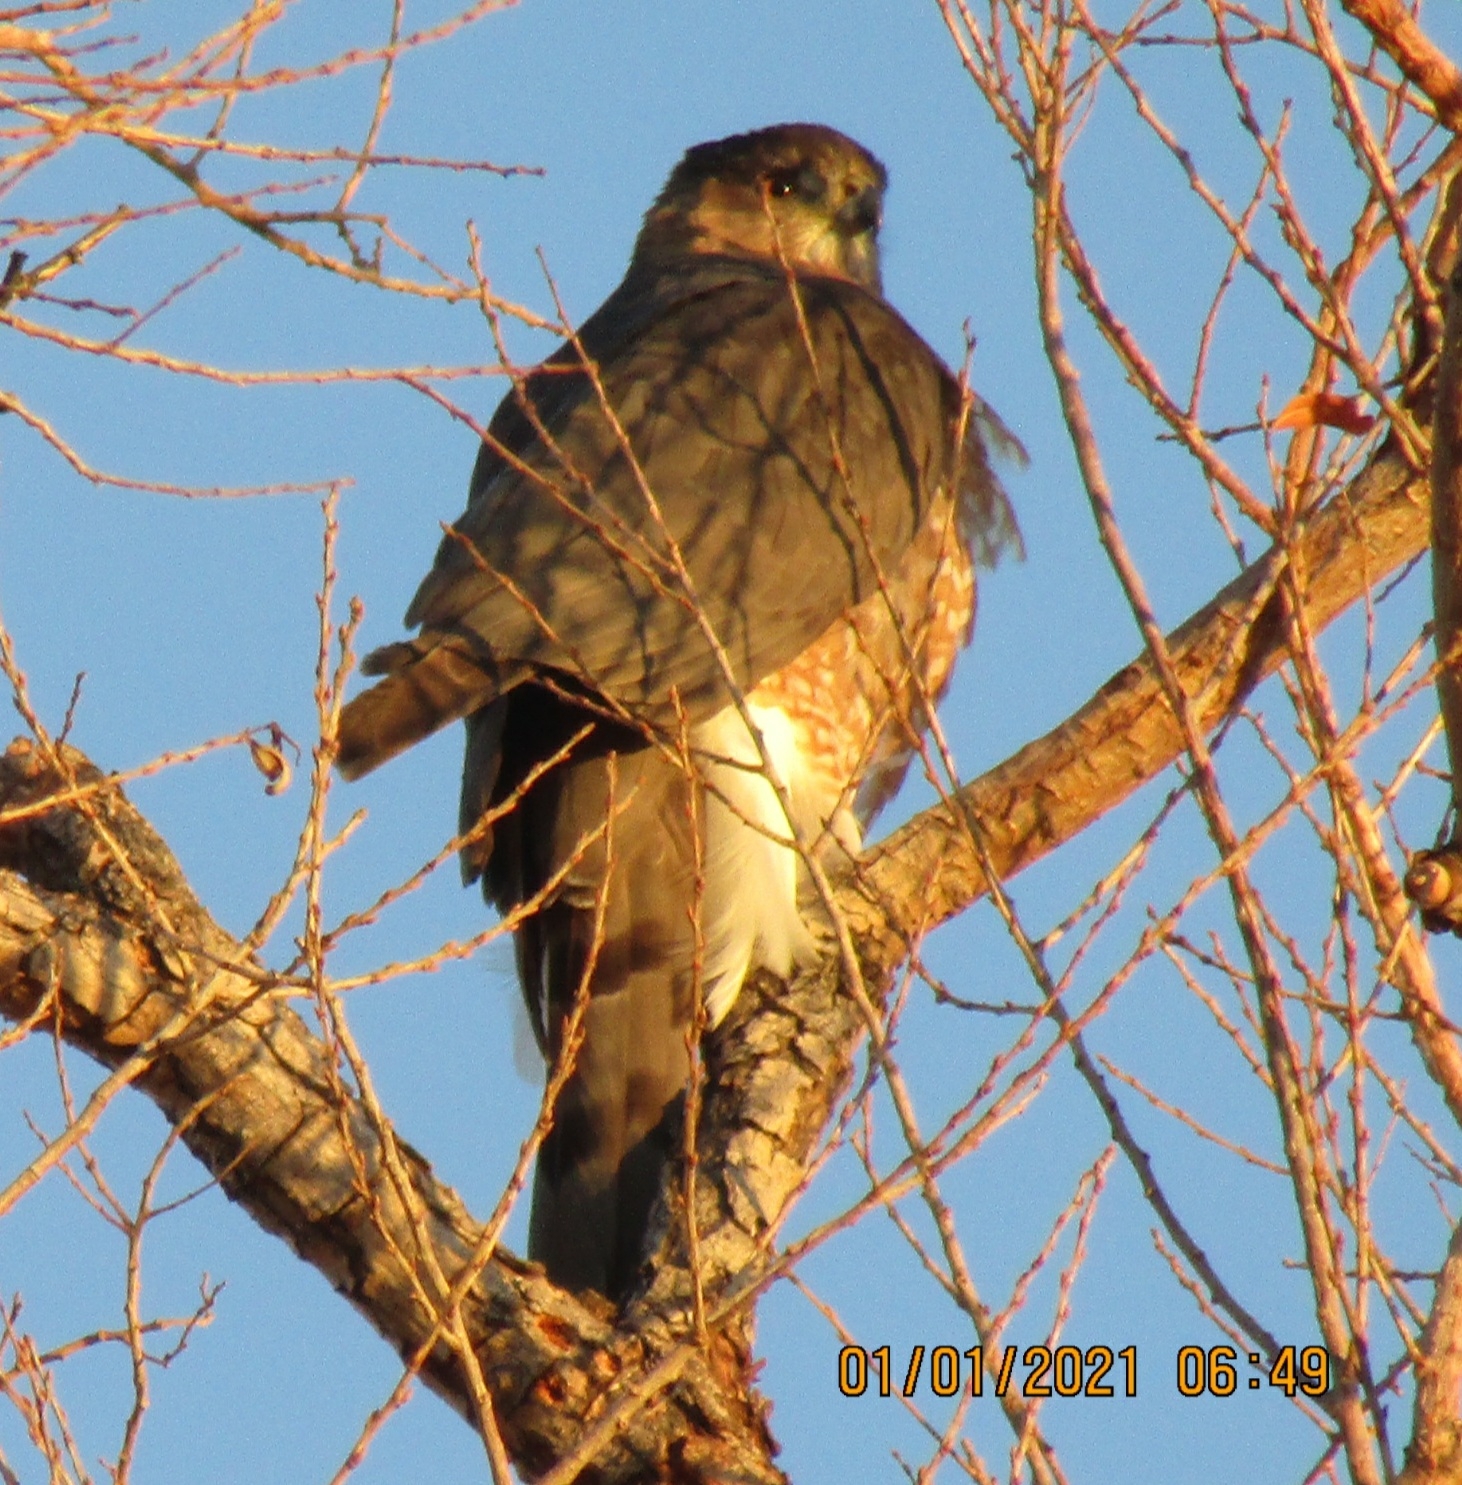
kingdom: Animalia
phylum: Chordata
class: Aves
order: Accipitriformes
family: Accipitridae
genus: Accipiter
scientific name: Accipiter cooperii
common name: Cooper's hawk
